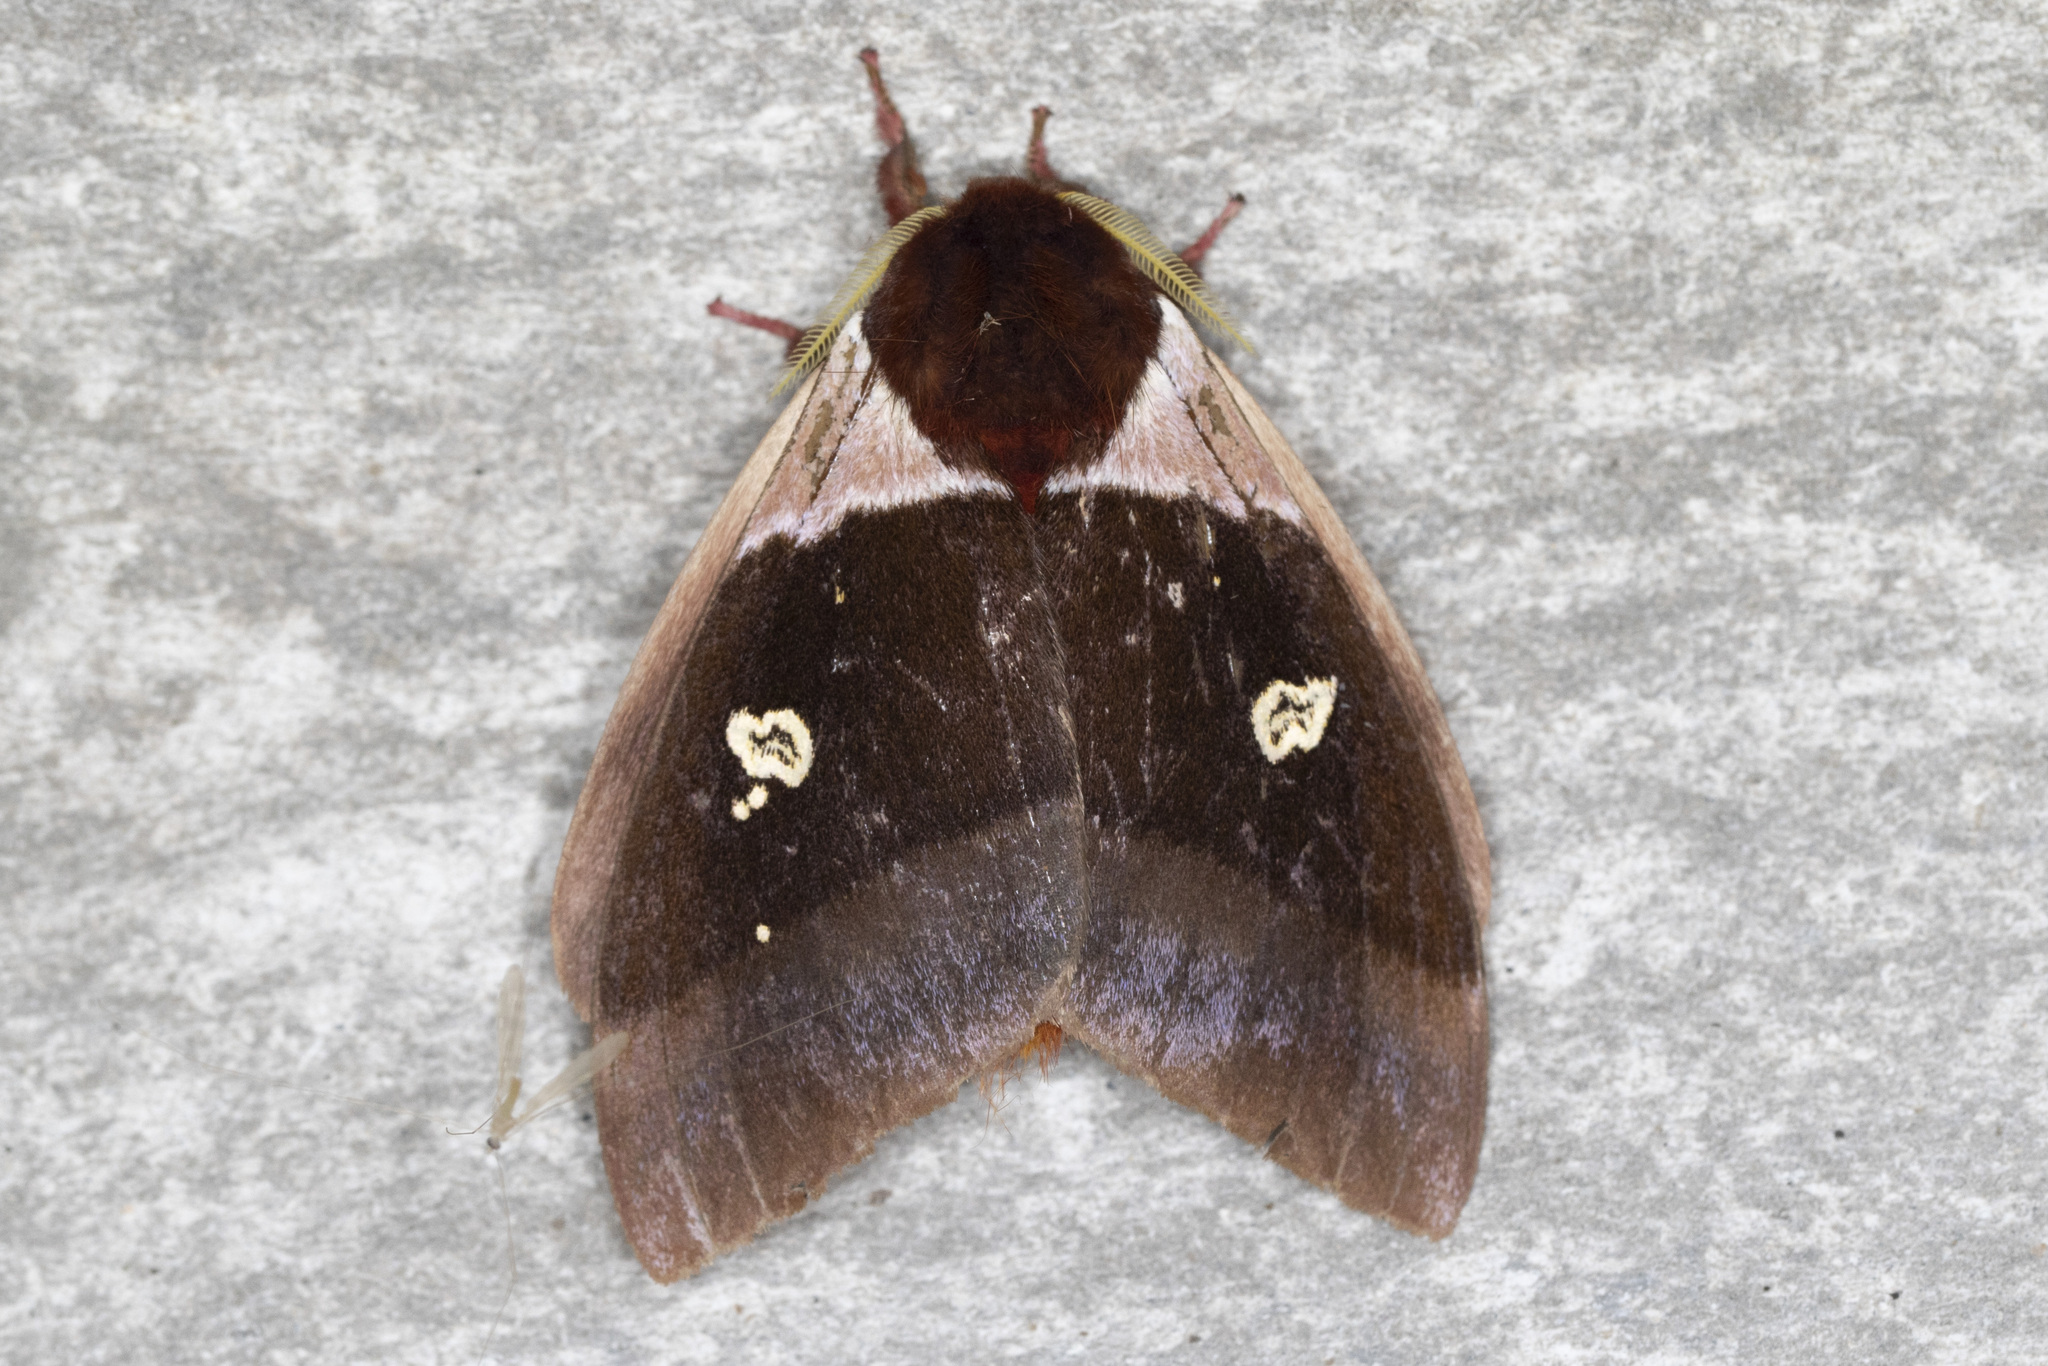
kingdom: Animalia
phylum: Arthropoda
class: Insecta
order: Lepidoptera
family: Saturniidae
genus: Dirphiopsis
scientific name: Dirphiopsis trisignata
